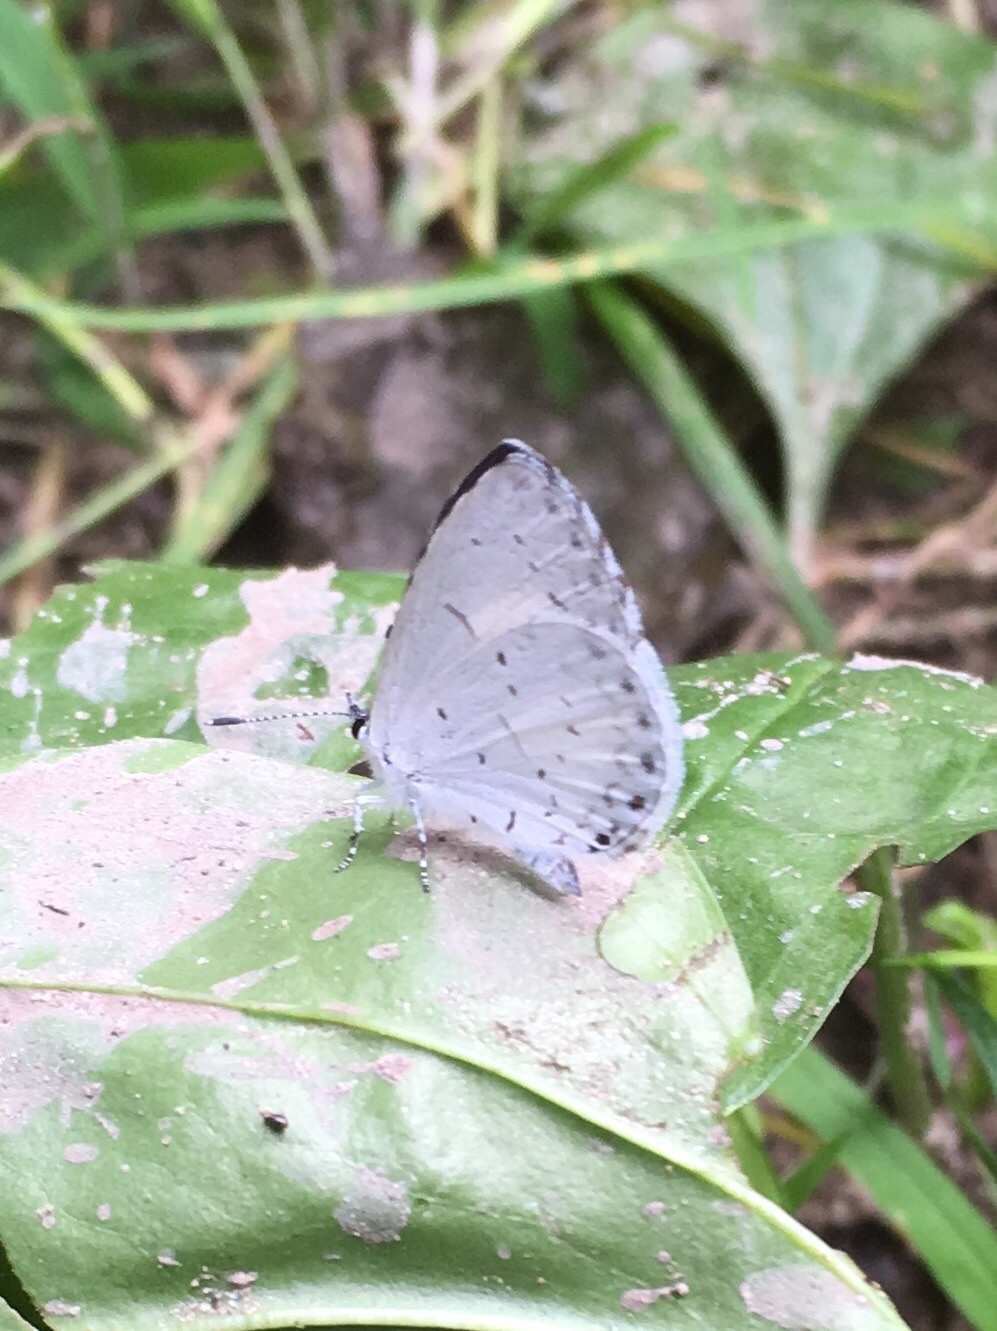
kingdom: Animalia
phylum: Arthropoda
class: Insecta
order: Lepidoptera
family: Lycaenidae
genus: Cyaniris
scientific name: Cyaniris neglecta
